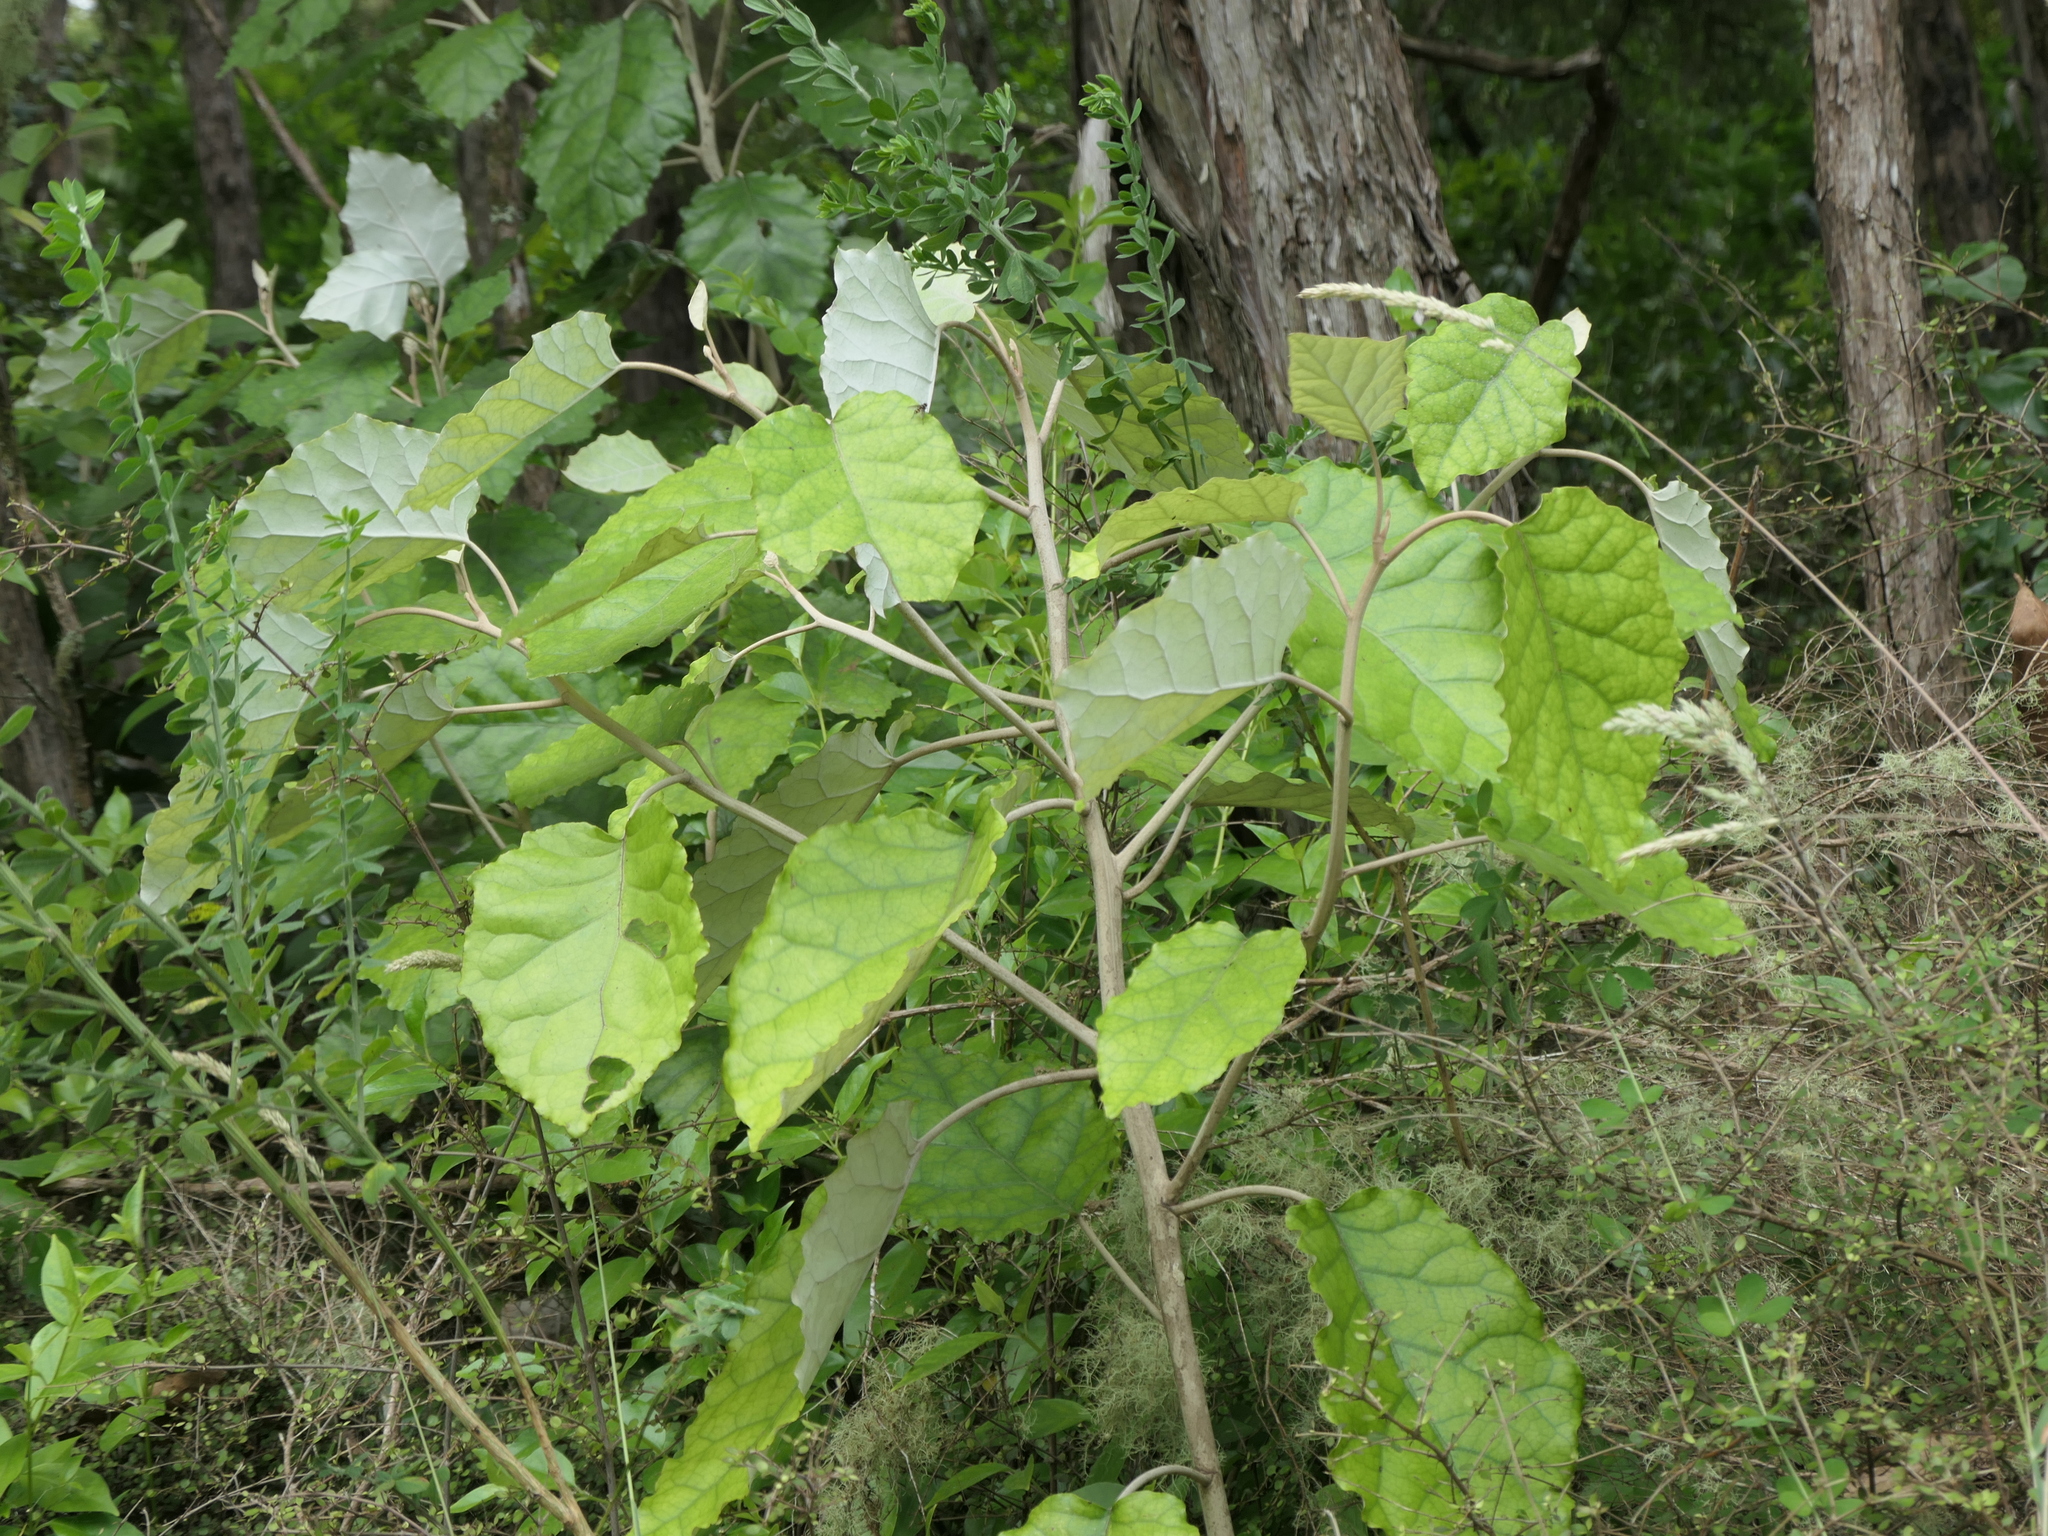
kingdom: Plantae
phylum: Tracheophyta
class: Magnoliopsida
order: Asterales
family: Asteraceae
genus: Brachyglottis
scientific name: Brachyglottis repanda
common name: Hedge ragwort
